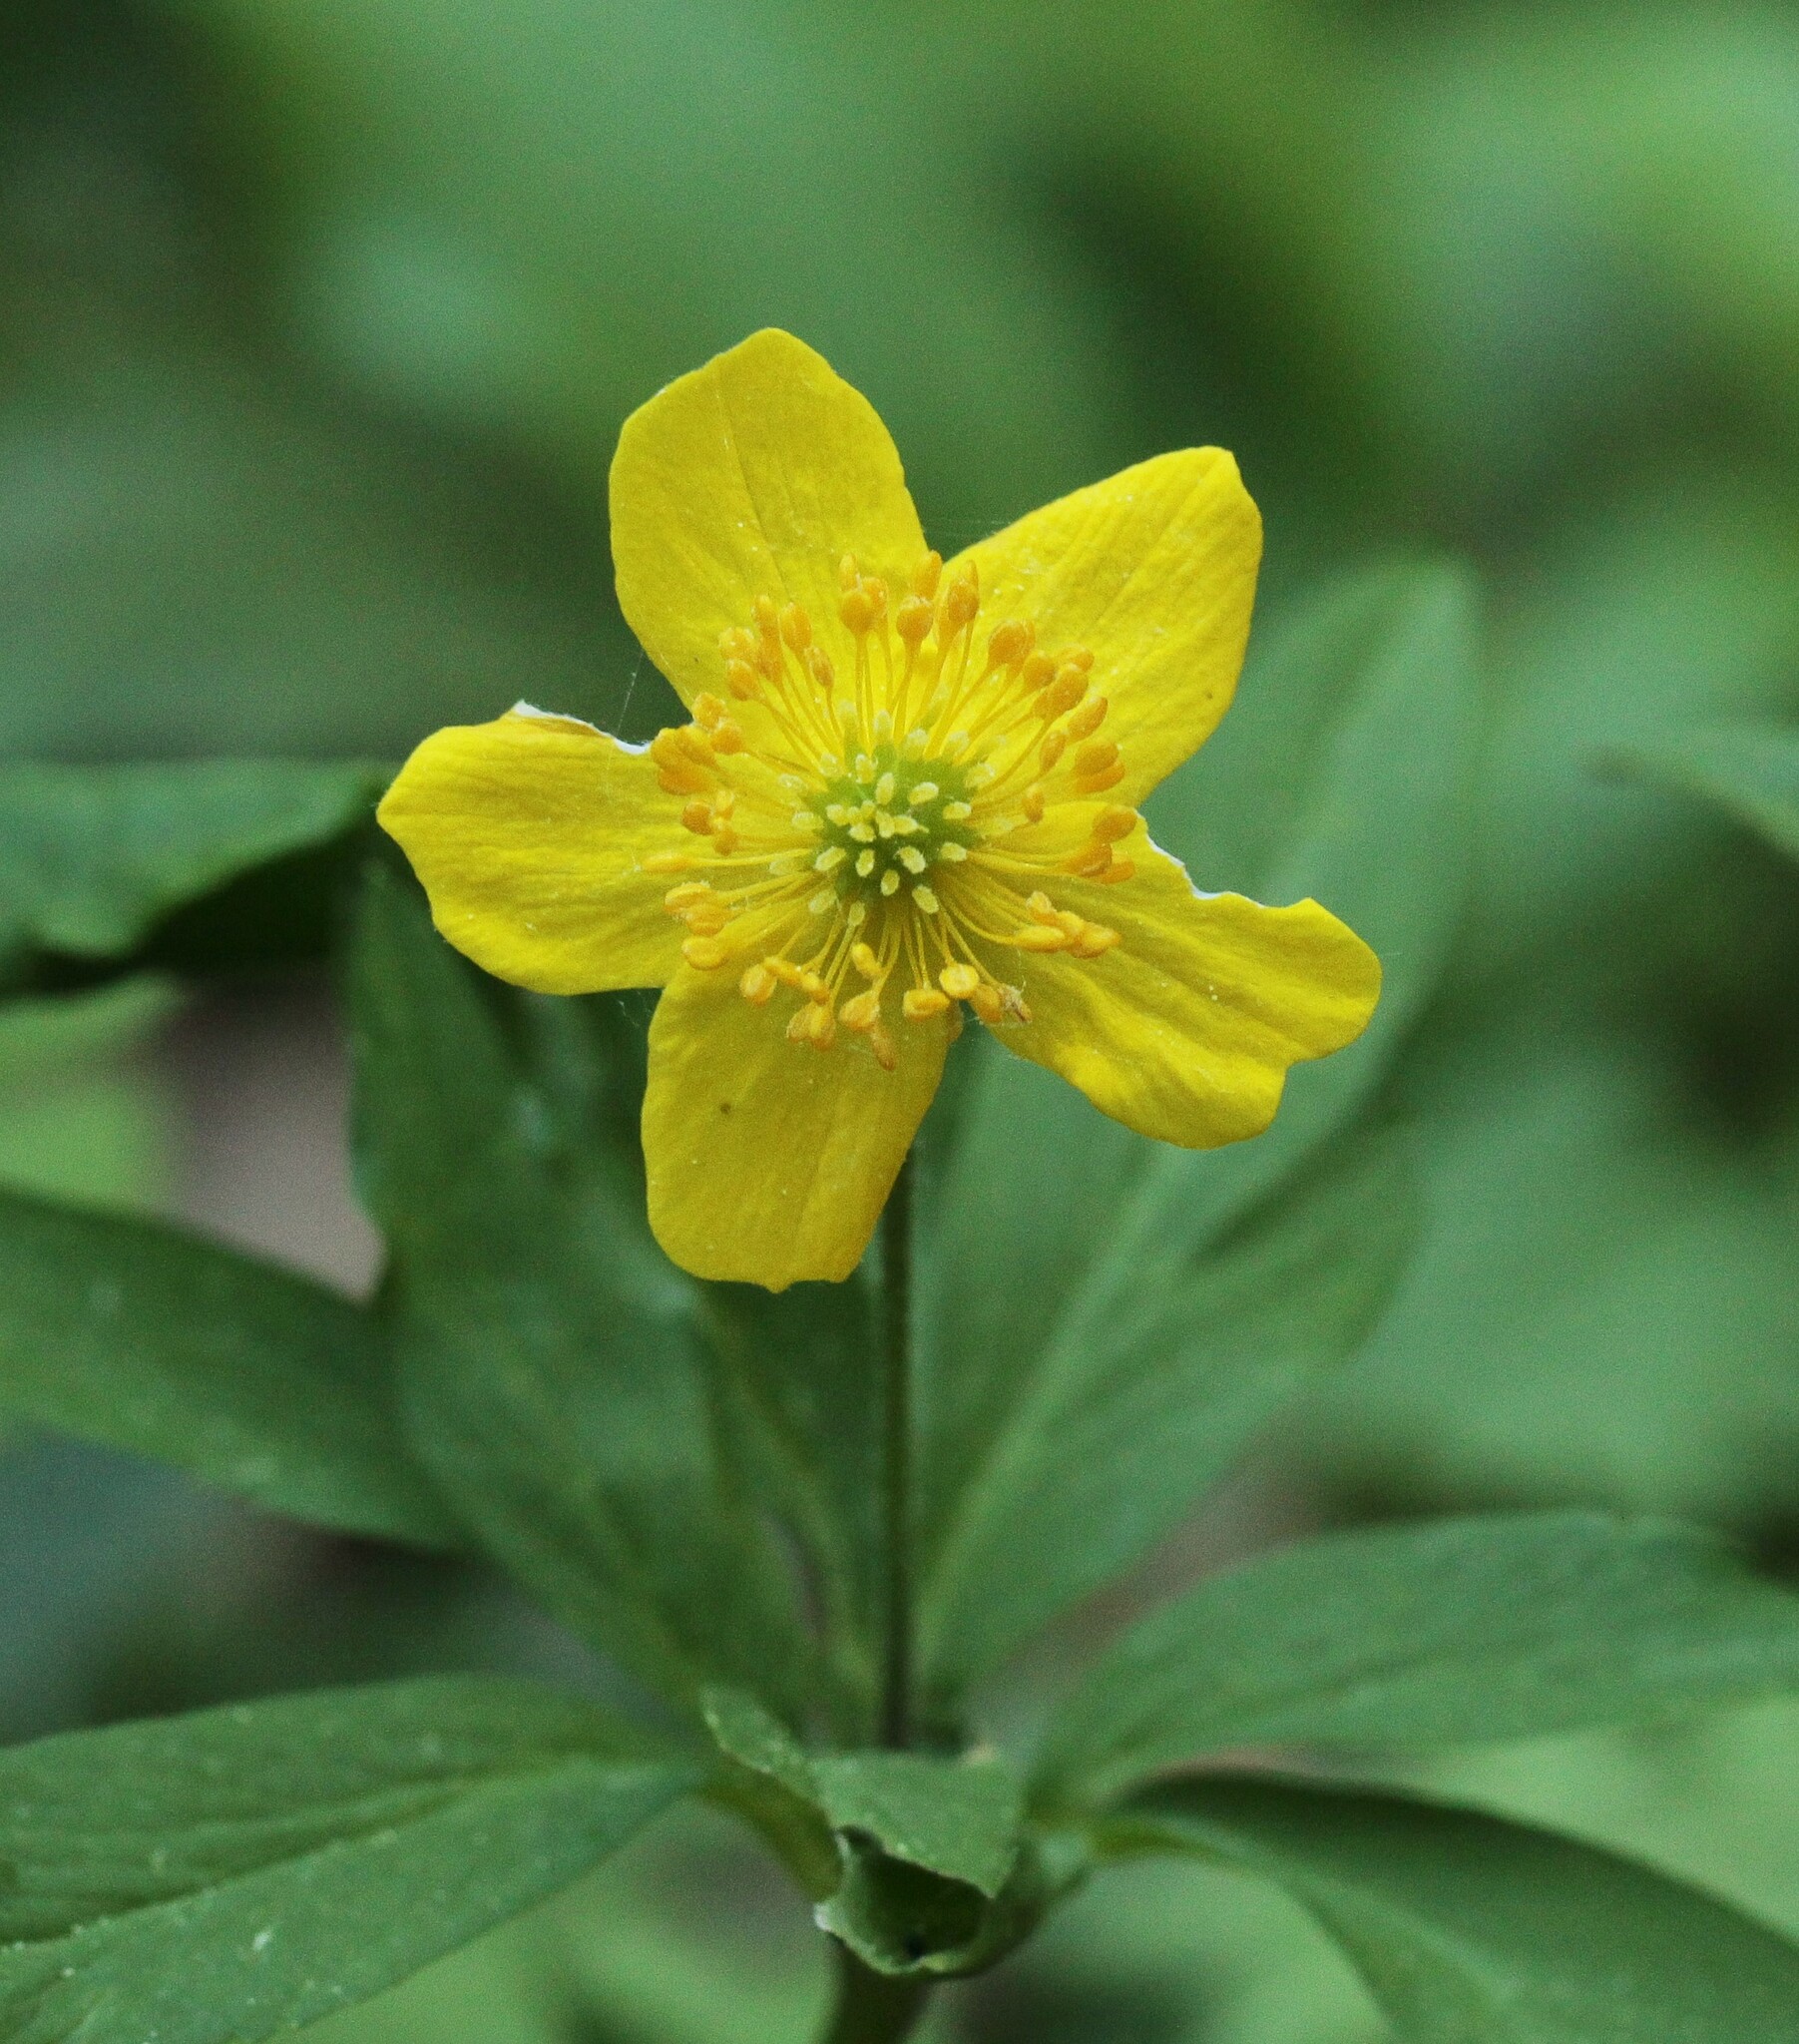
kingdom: Plantae
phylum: Tracheophyta
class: Magnoliopsida
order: Ranunculales
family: Ranunculaceae
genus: Anemone
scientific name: Anemone ranunculoides
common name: Yellow anemone
